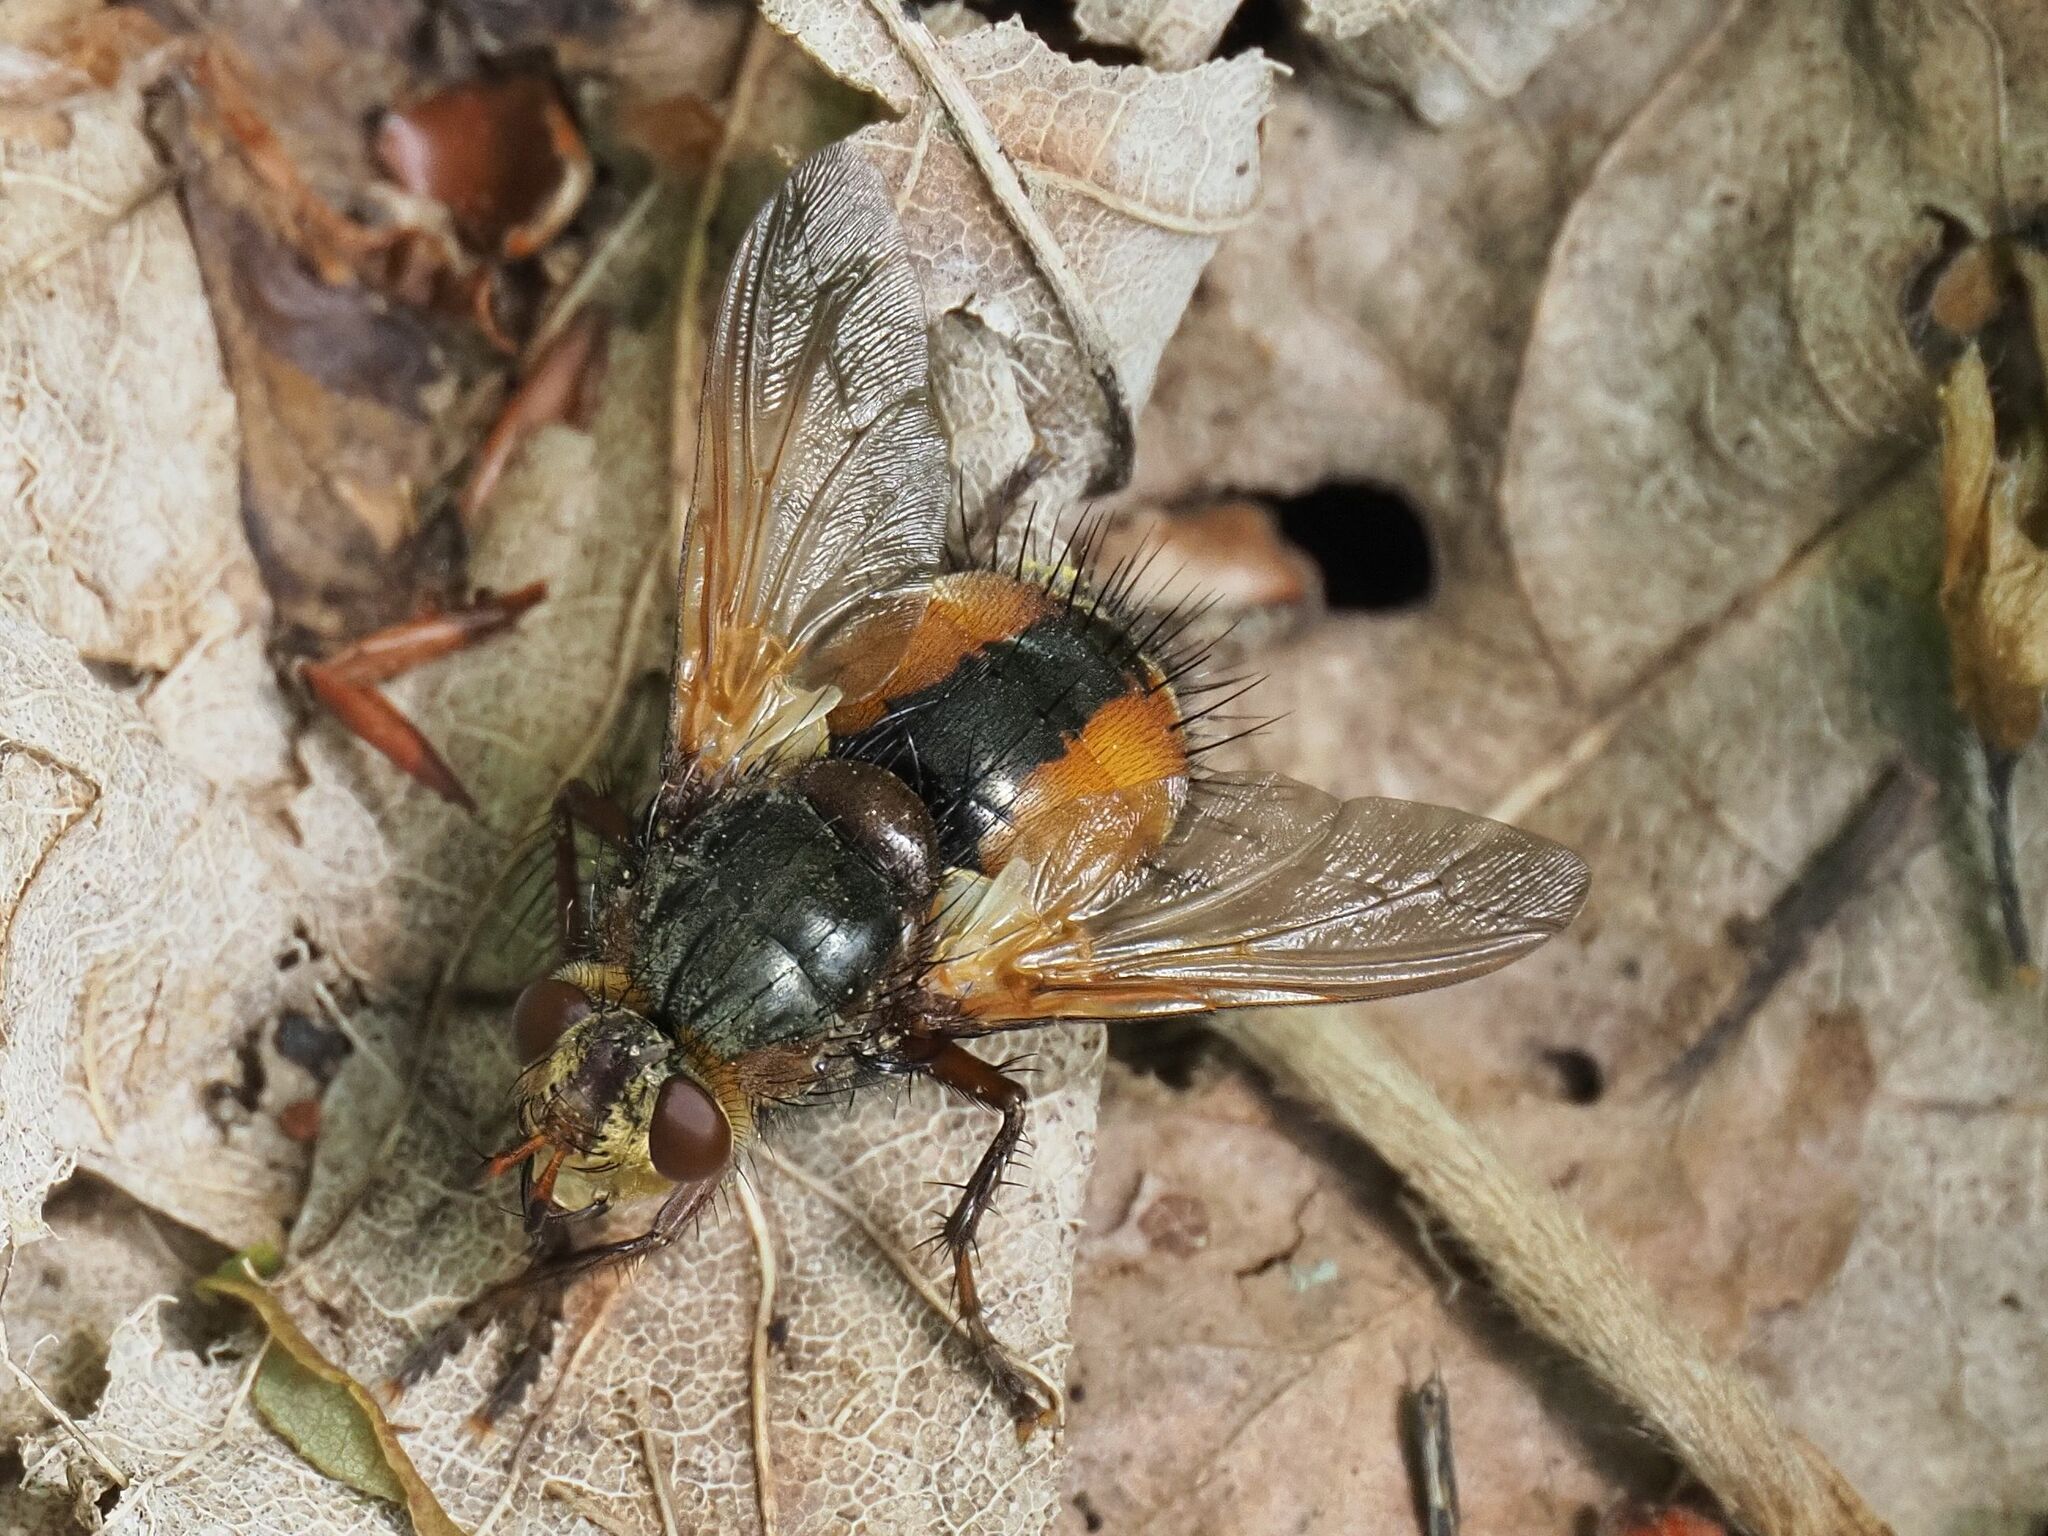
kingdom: Animalia
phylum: Arthropoda
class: Insecta
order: Diptera
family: Tachinidae
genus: Tachina
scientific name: Tachina fera
